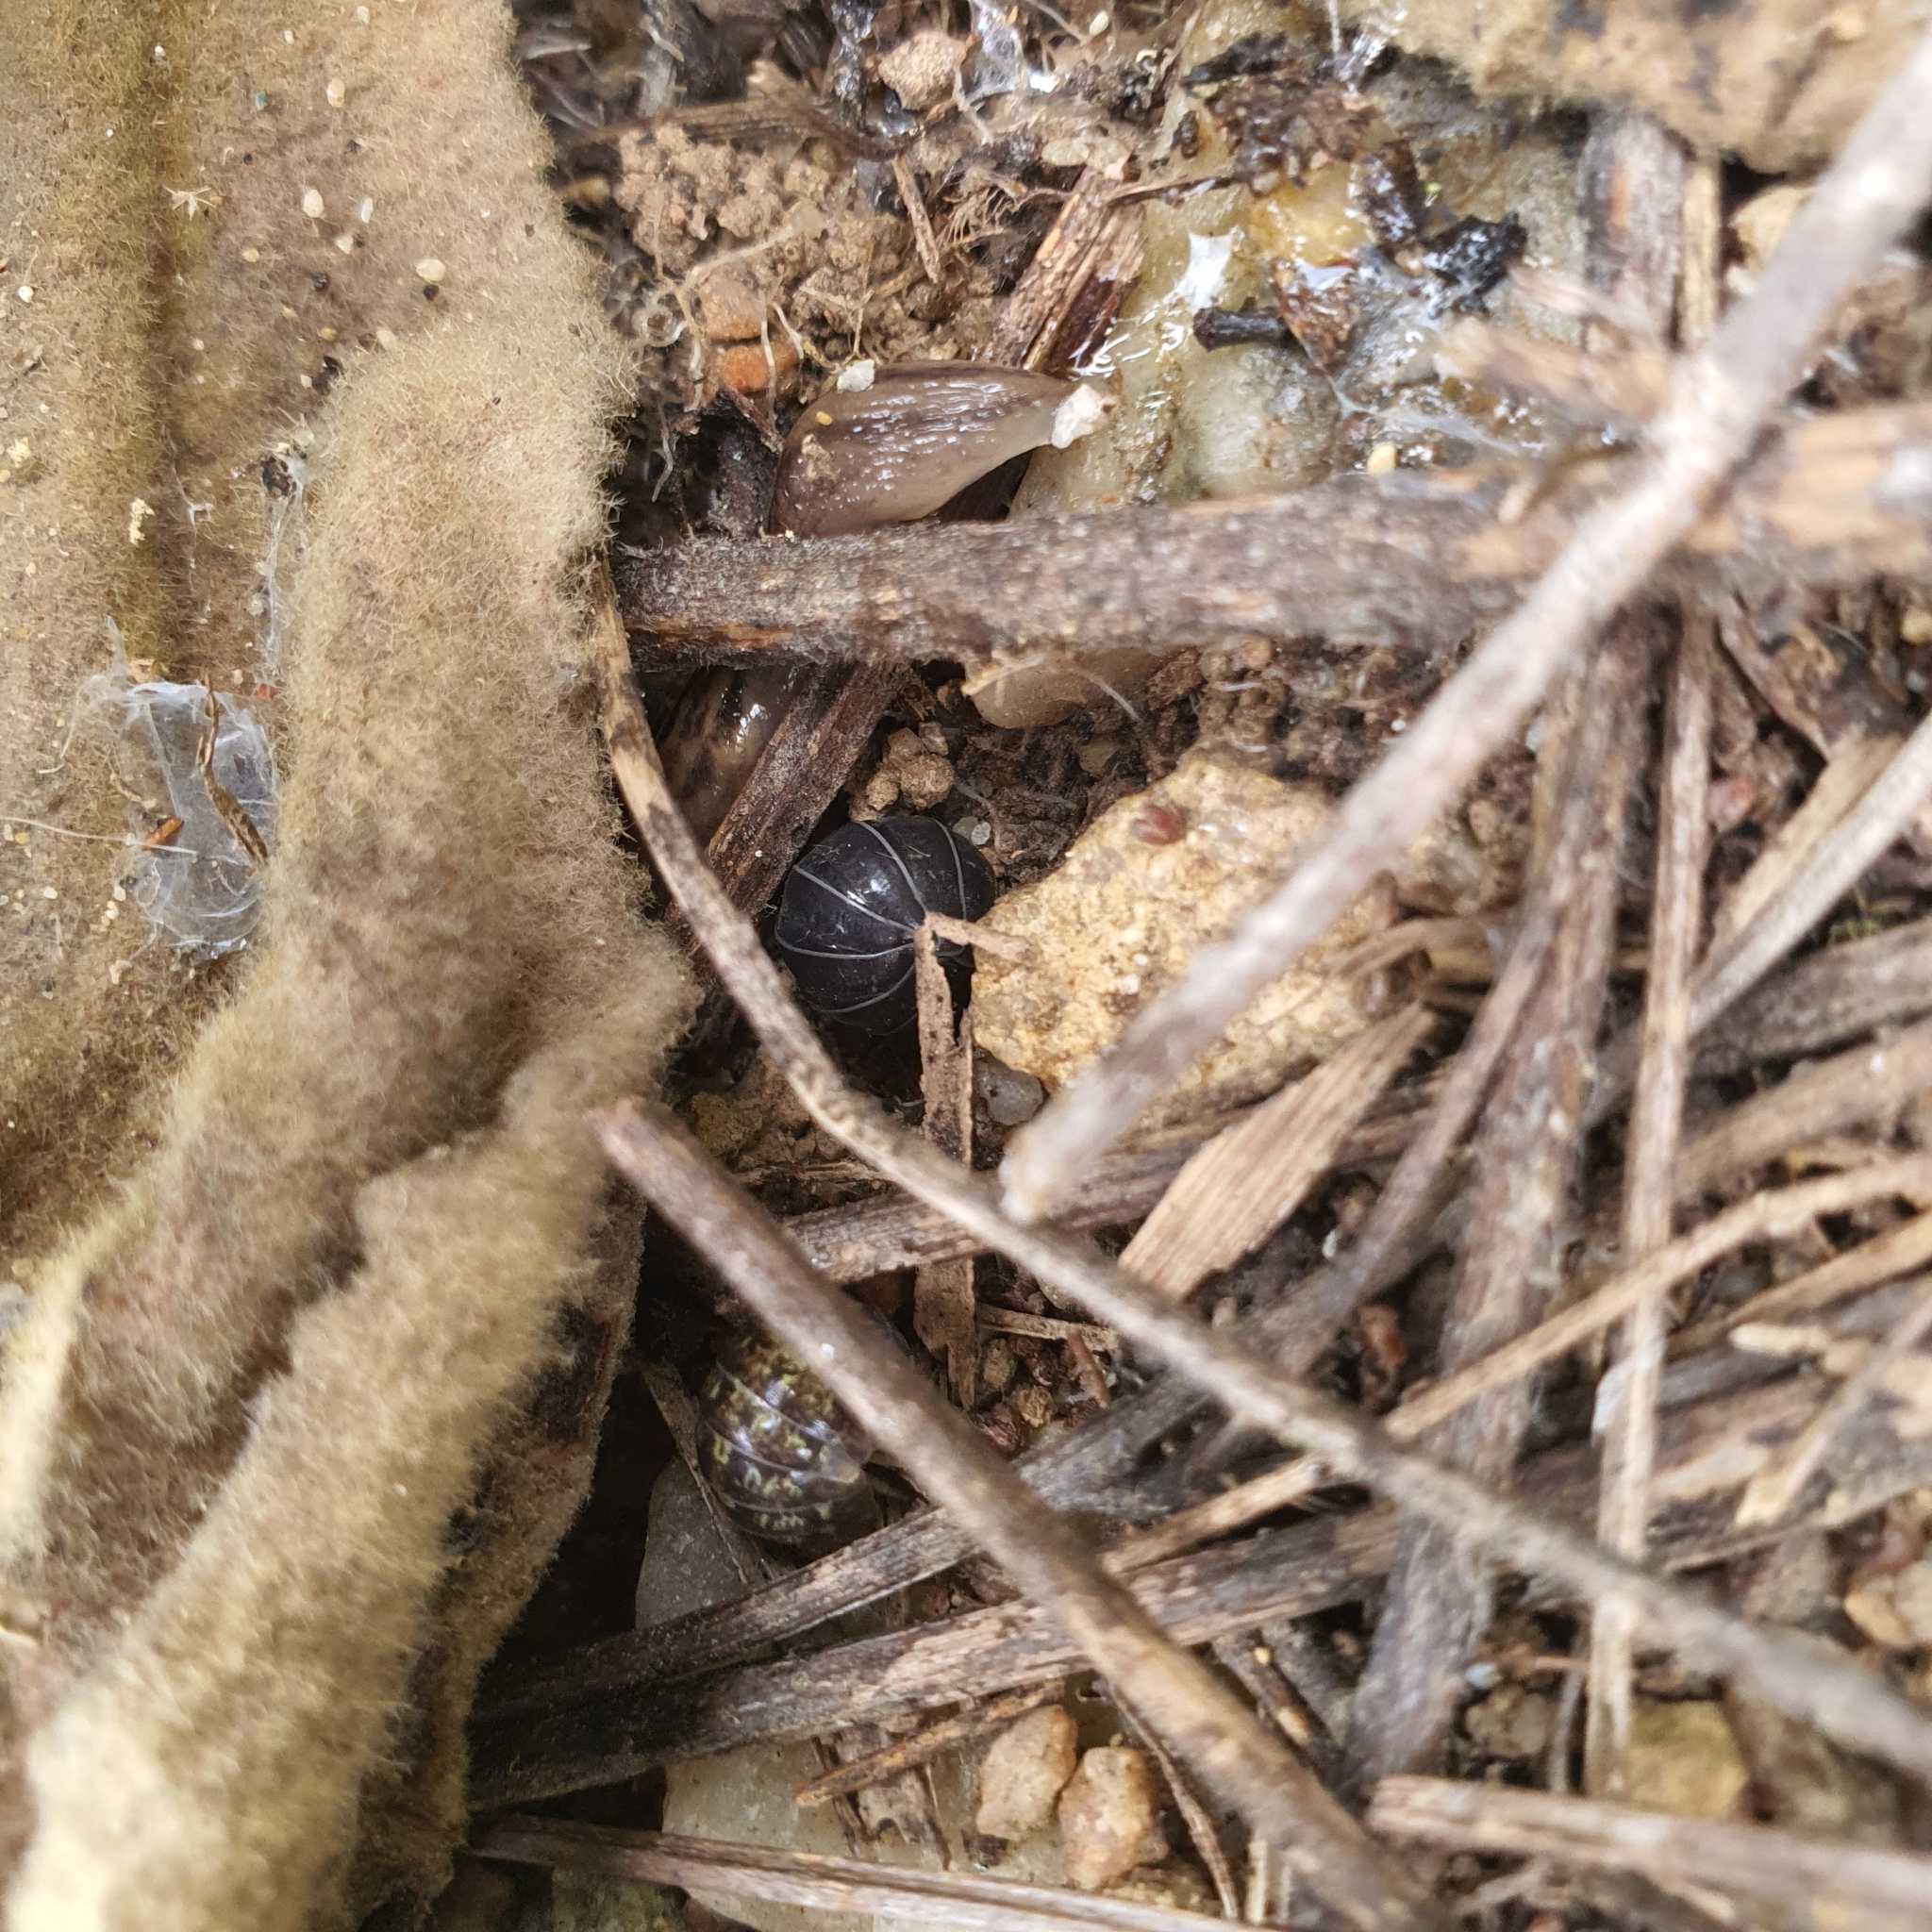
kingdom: Animalia
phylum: Arthropoda
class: Malacostraca
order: Isopoda
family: Armadillidiidae
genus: Armadillidium
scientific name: Armadillidium vulgare
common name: Common pill woodlouse
